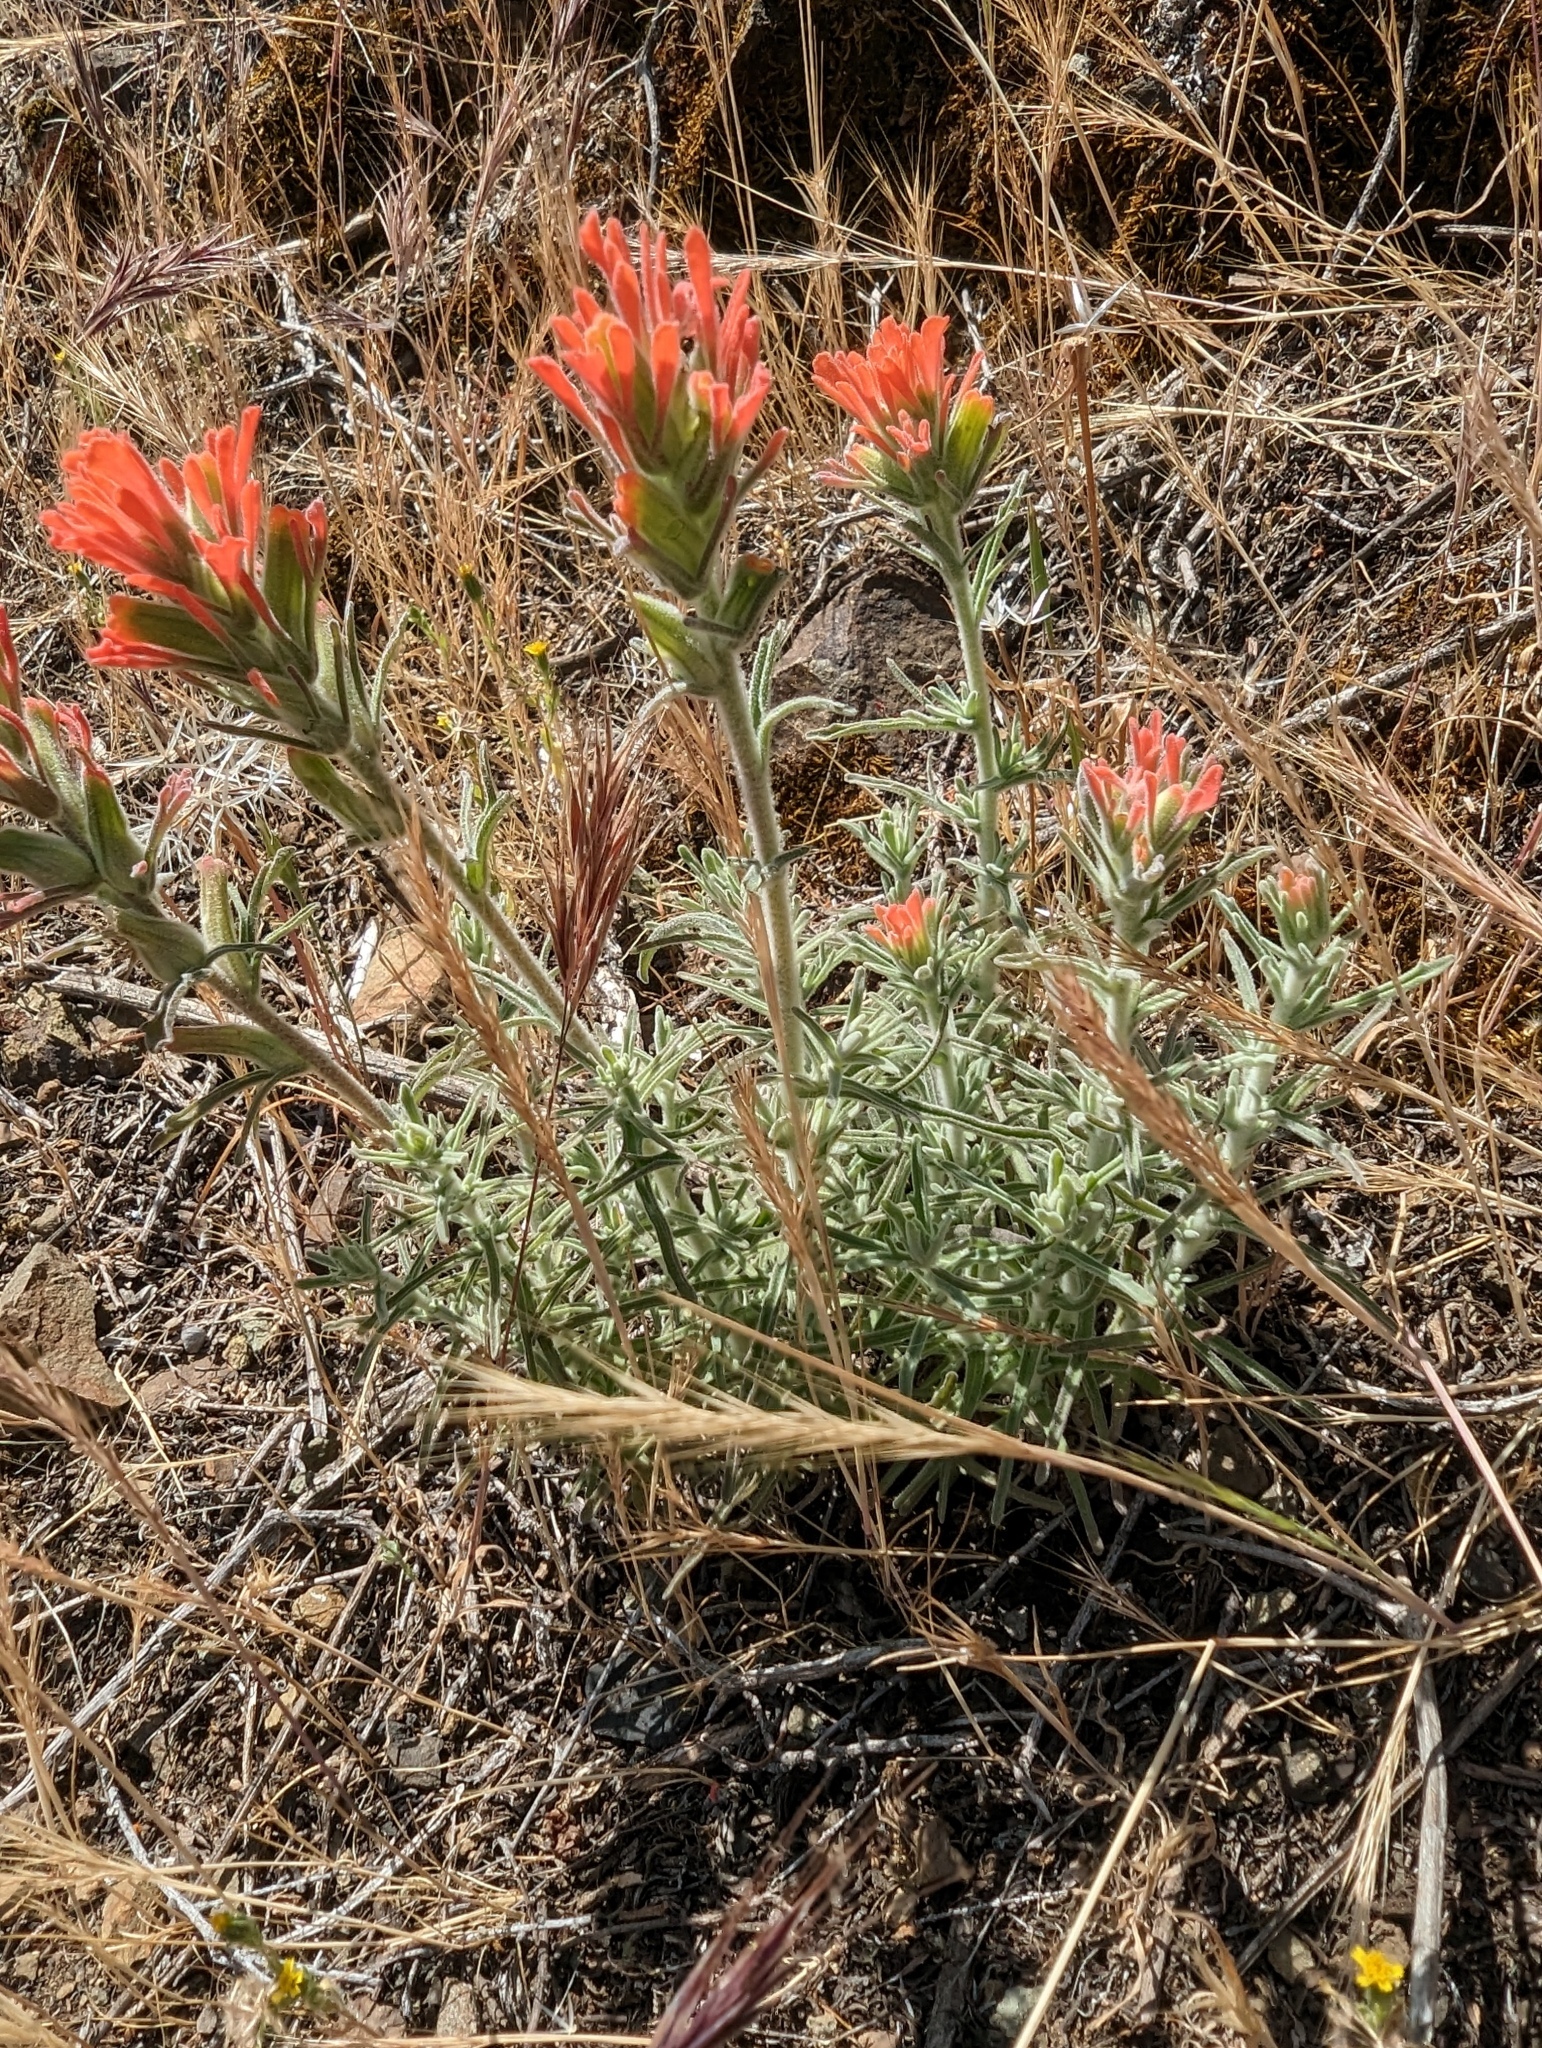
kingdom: Plantae
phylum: Tracheophyta
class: Magnoliopsida
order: Lamiales
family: Orobanchaceae
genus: Castilleja
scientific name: Castilleja foliolosa
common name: Woolly indian paintbrush
